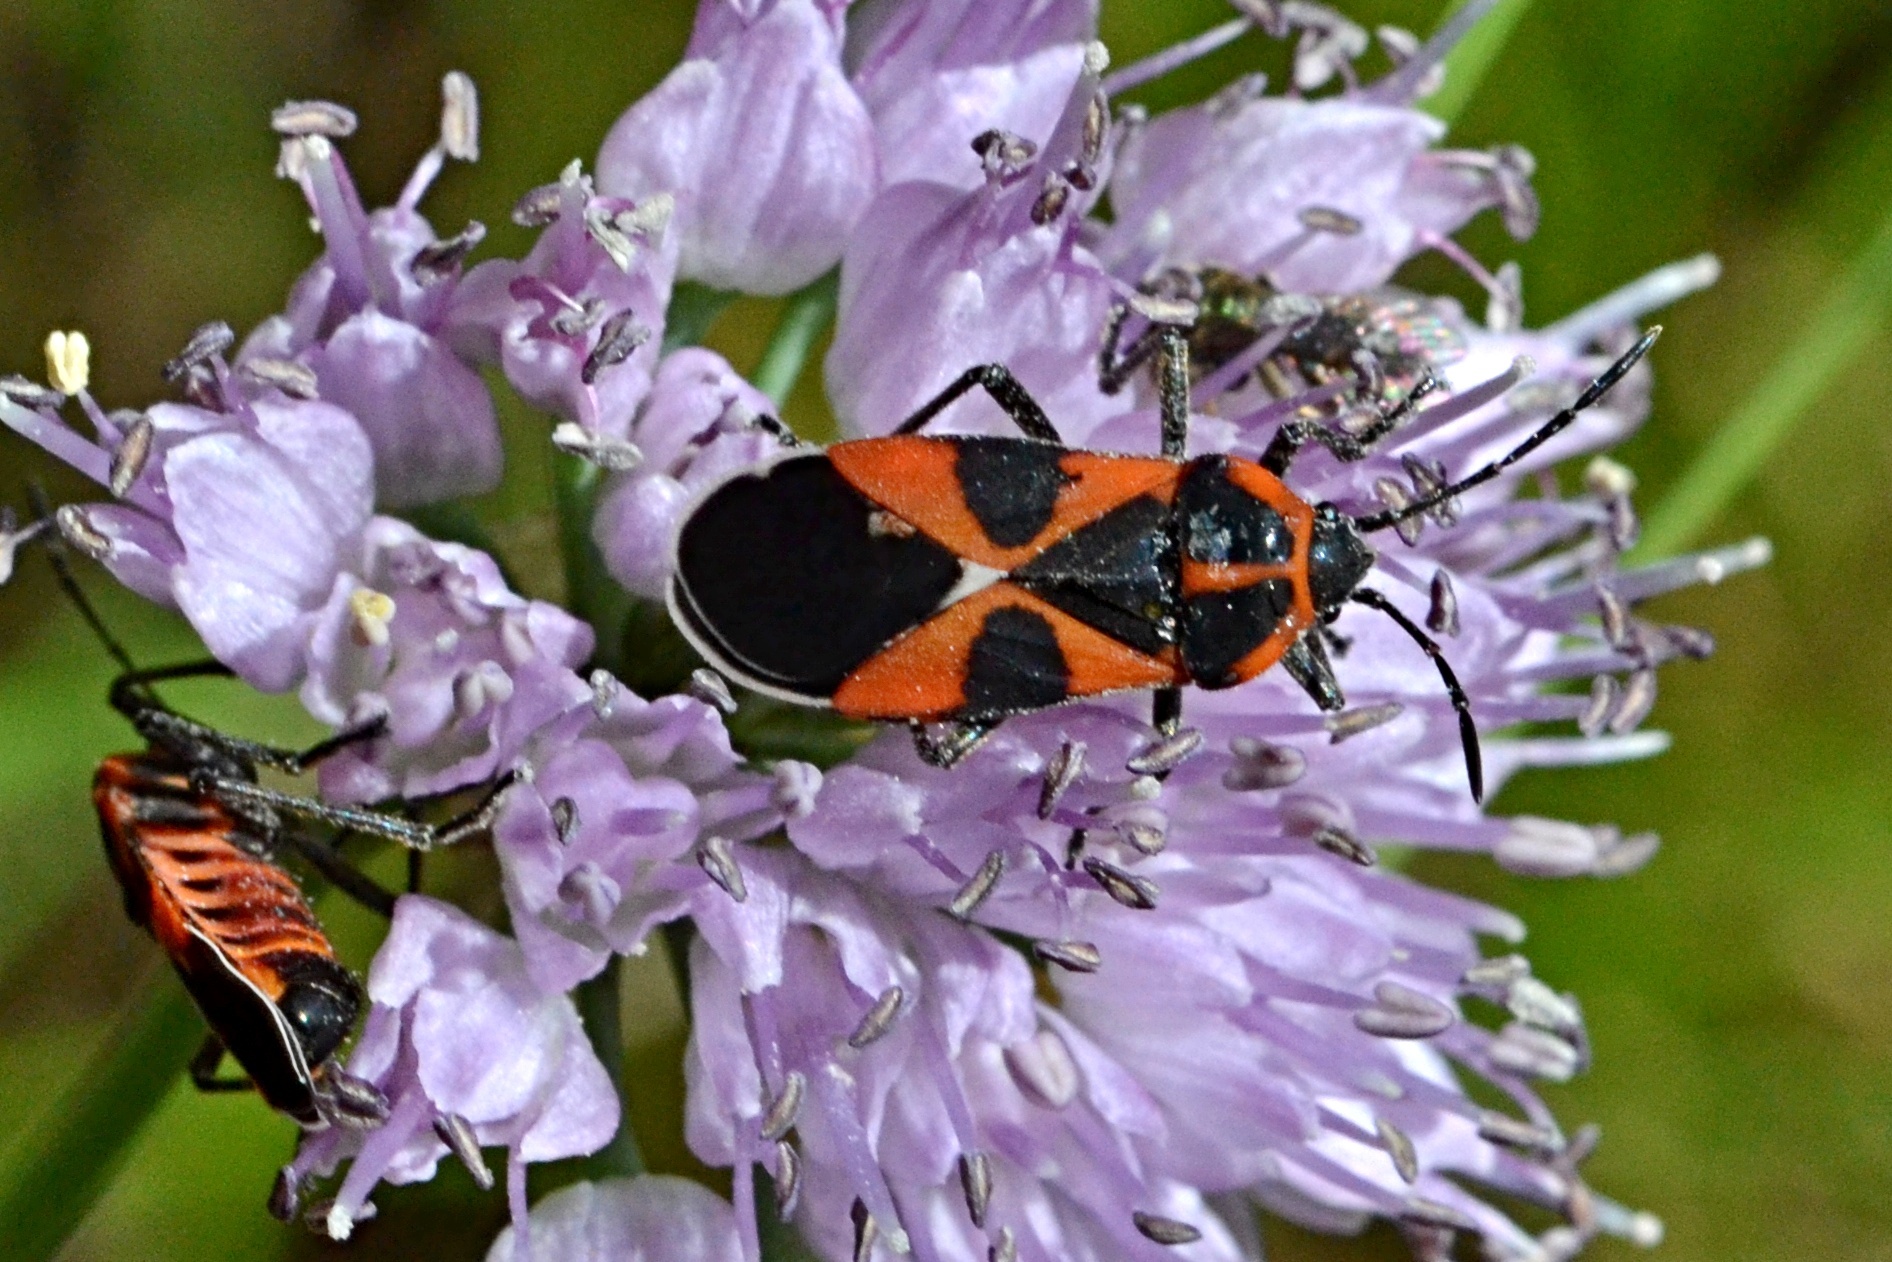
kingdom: Animalia
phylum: Arthropoda
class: Insecta
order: Hemiptera
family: Lygaeidae
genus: Tropidothorax
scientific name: Tropidothorax leucopterus
